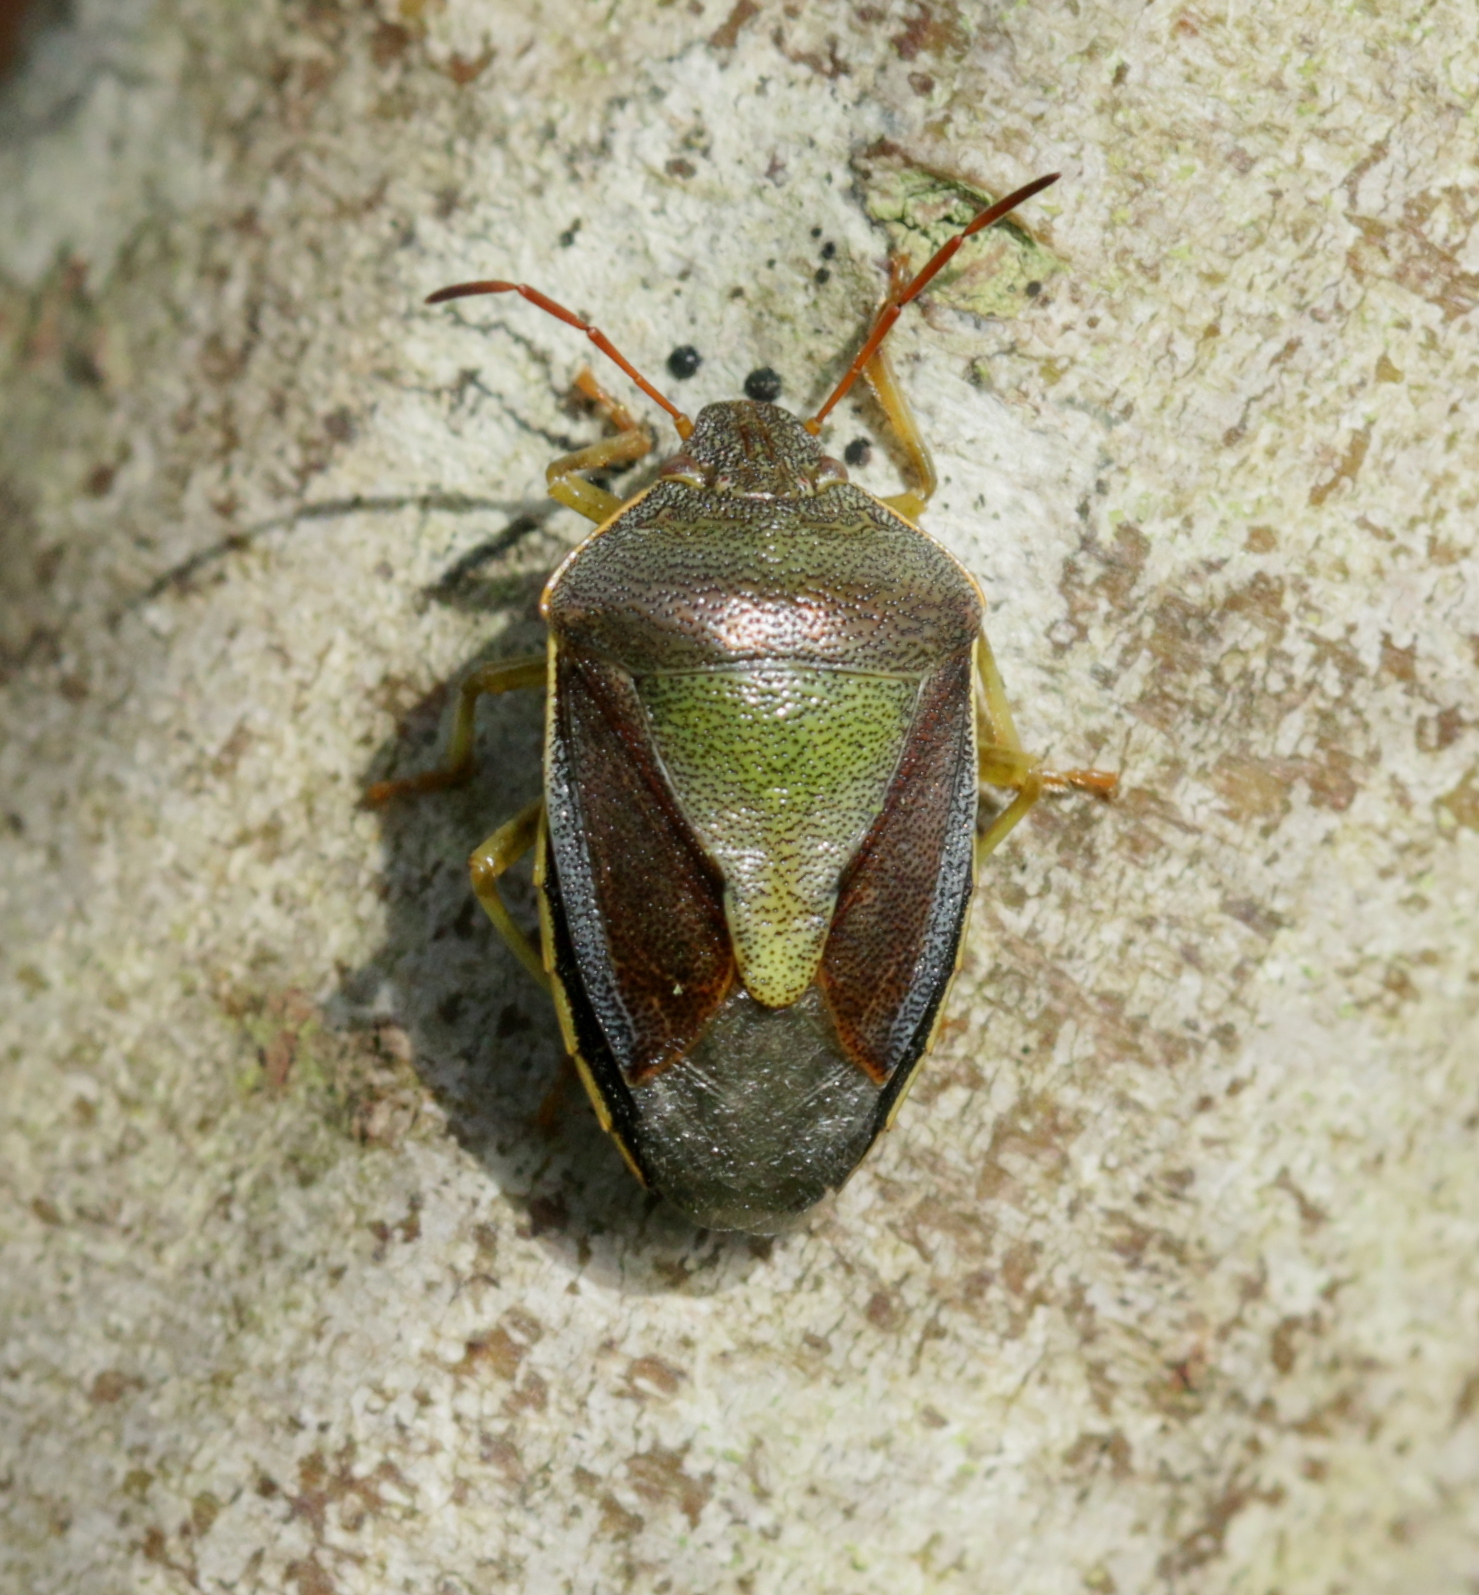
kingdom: Animalia
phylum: Arthropoda
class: Insecta
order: Hemiptera
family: Pentatomidae
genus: Piezodorus
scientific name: Piezodorus lituratus
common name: Stink bug
